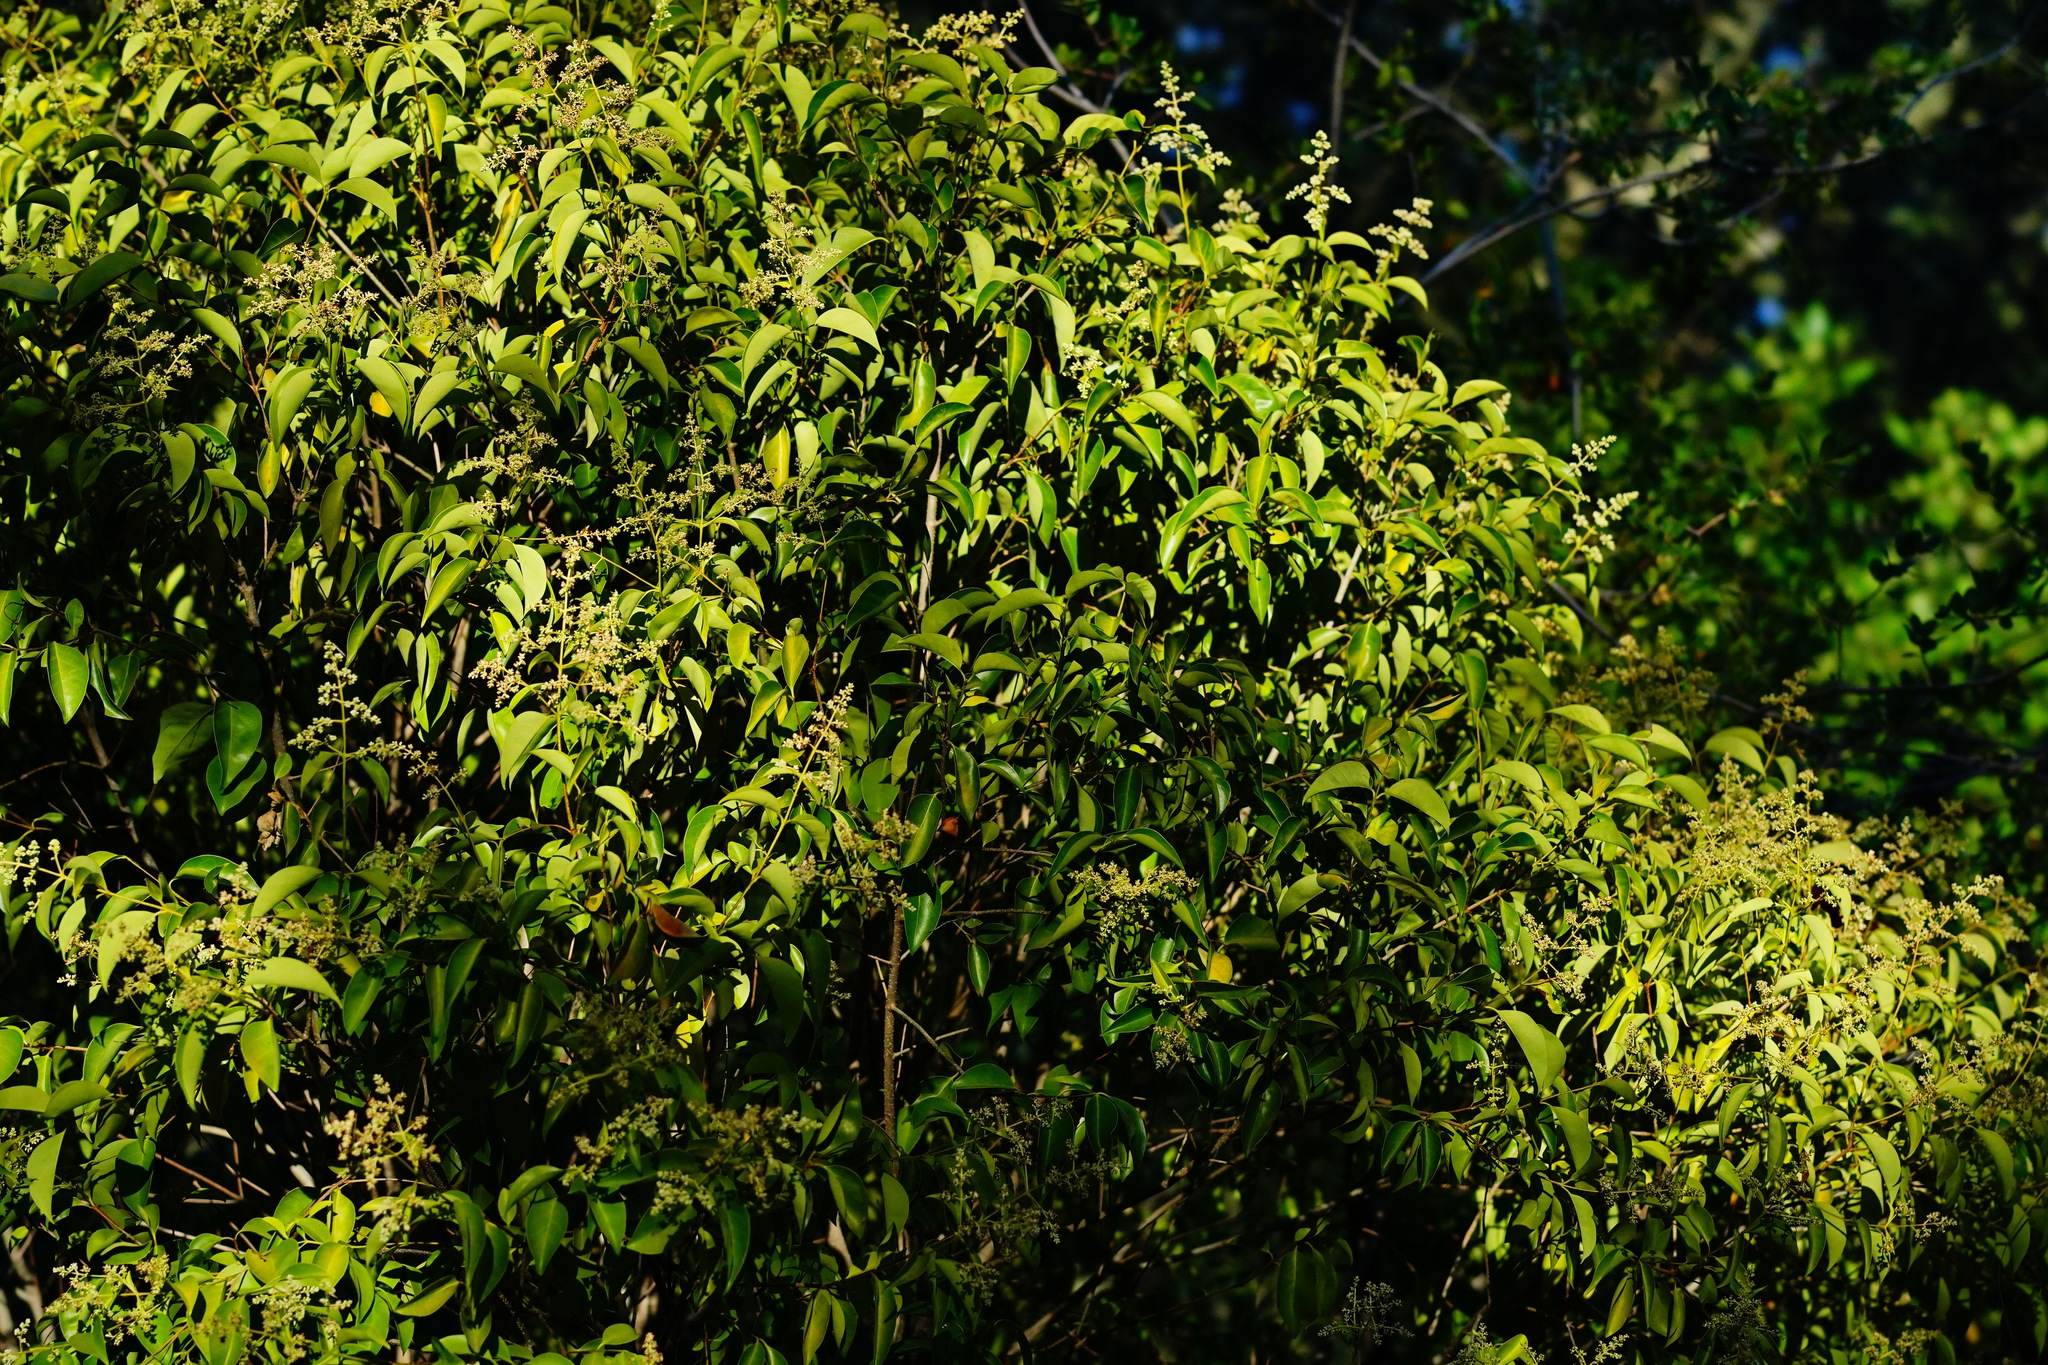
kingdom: Plantae
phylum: Tracheophyta
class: Magnoliopsida
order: Lamiales
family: Oleaceae
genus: Ligustrum
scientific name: Ligustrum lucidum
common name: Glossy privet
